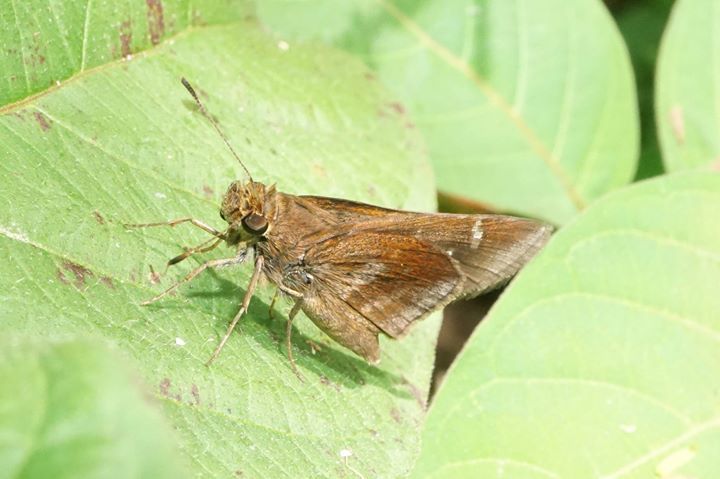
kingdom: Animalia
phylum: Arthropoda
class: Insecta
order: Lepidoptera
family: Hesperiidae
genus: Lerema
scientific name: Lerema accius
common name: Clouded skipper
